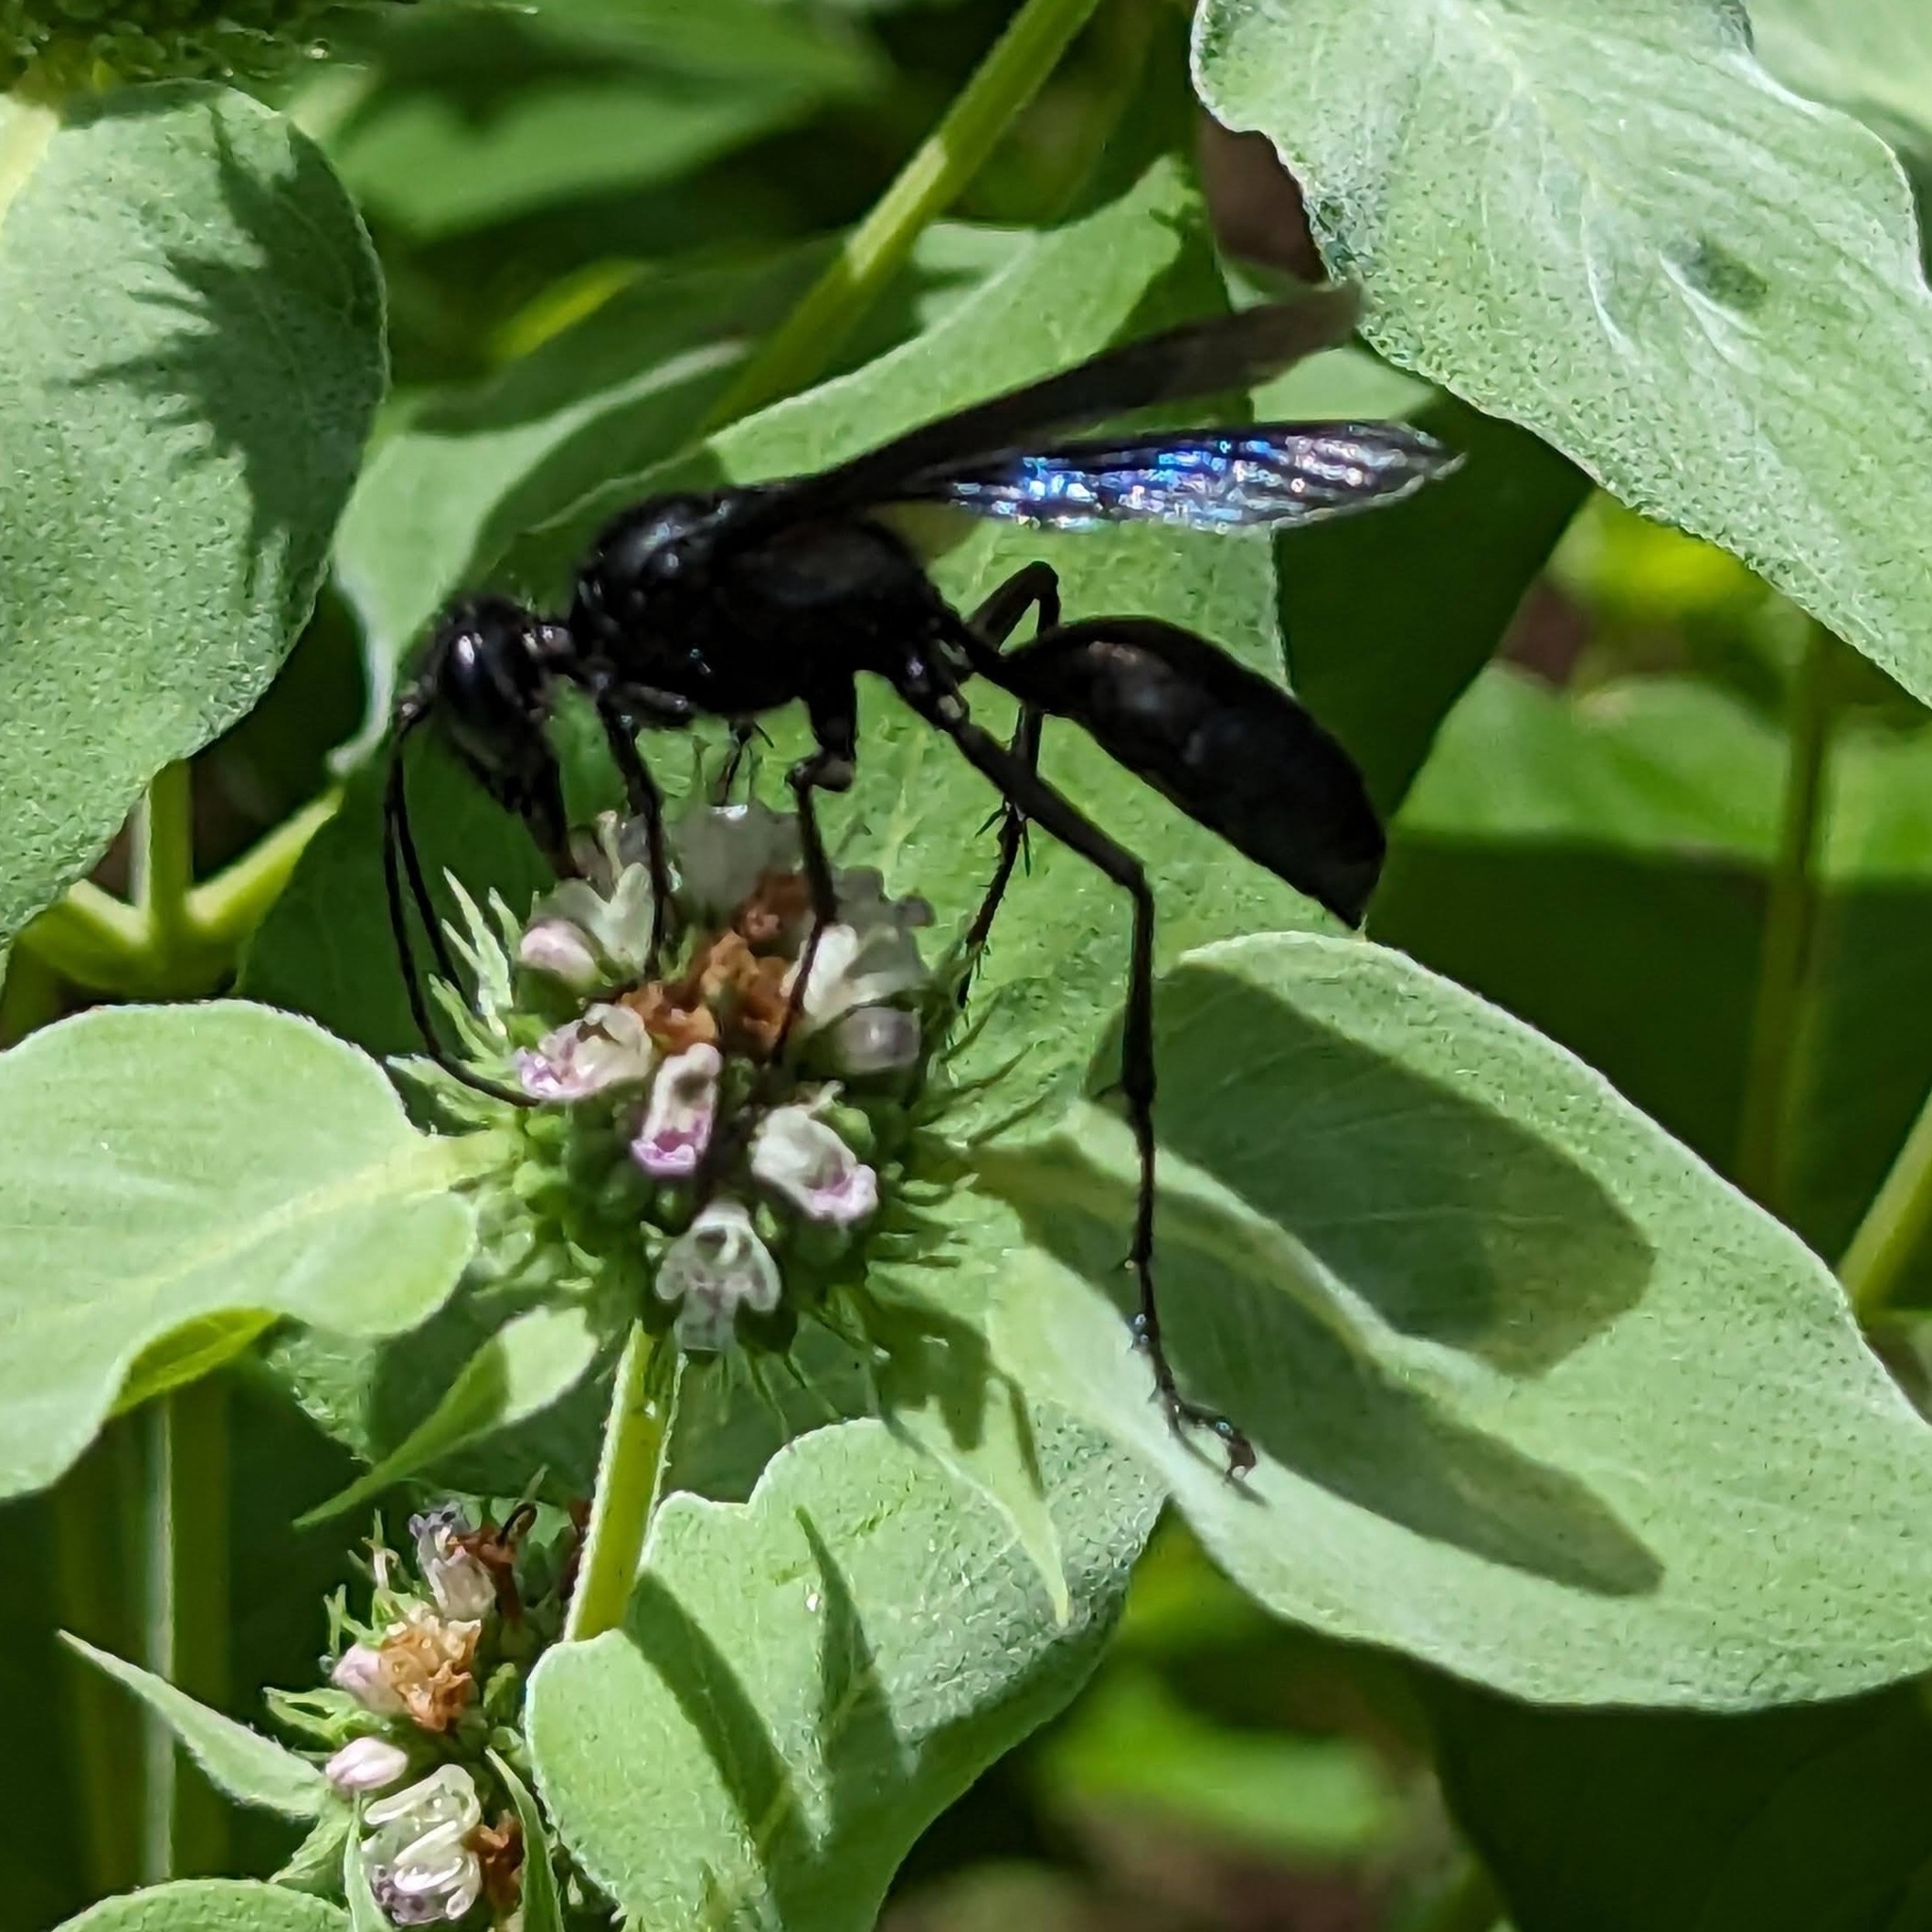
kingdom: Animalia
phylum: Arthropoda
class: Insecta
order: Hymenoptera
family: Sphecidae
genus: Sphex
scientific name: Sphex pensylvanicus
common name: Great black digger wasp
